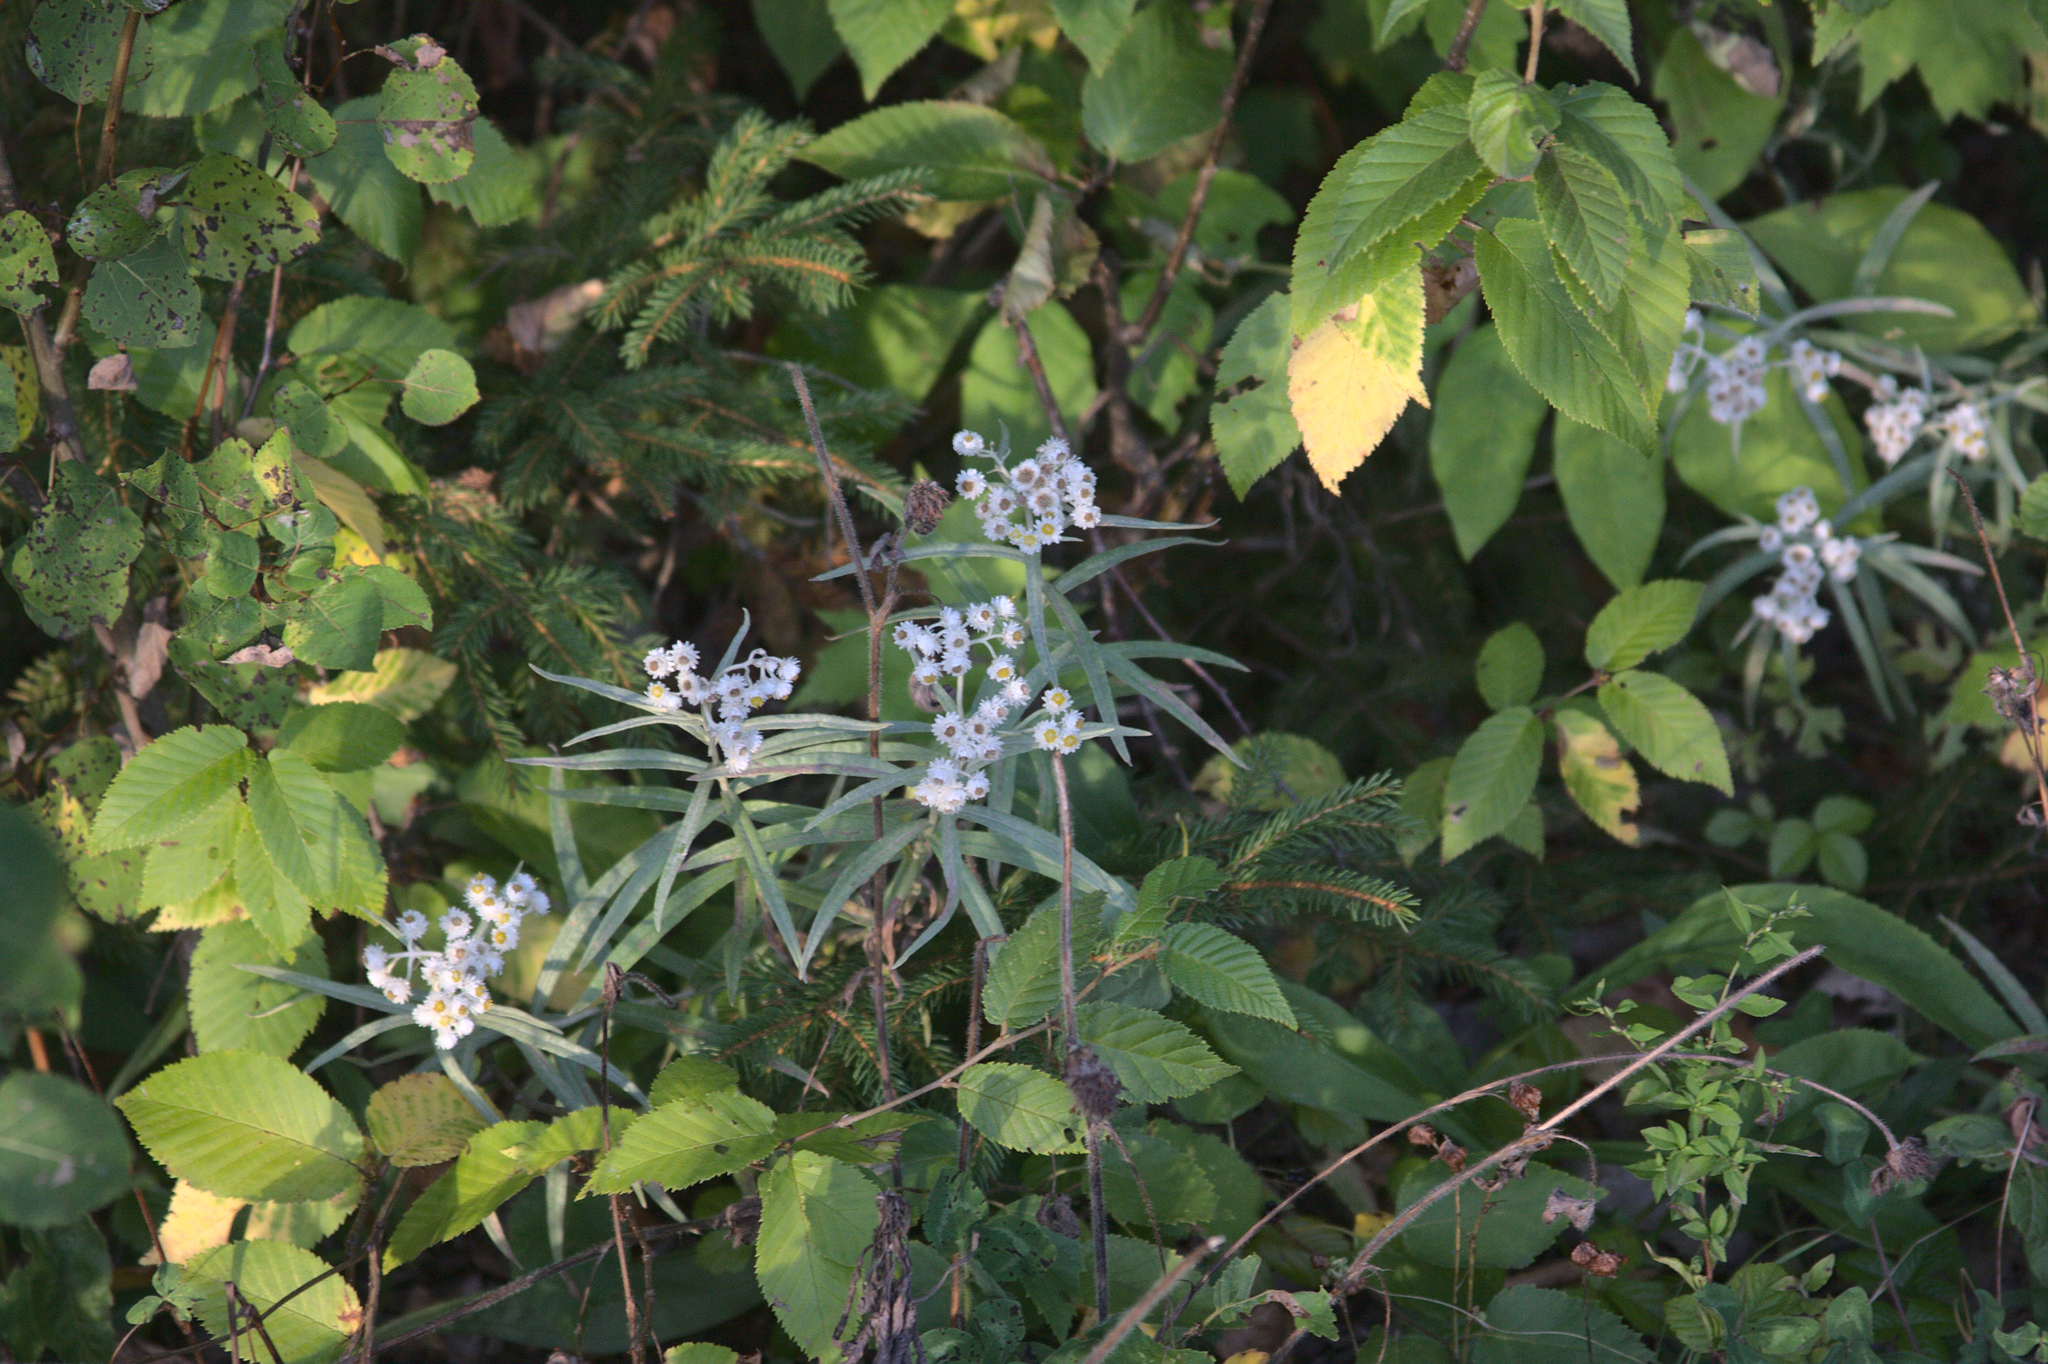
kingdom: Plantae
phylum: Tracheophyta
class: Magnoliopsida
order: Asterales
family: Asteraceae
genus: Anaphalis
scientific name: Anaphalis margaritacea
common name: Pearly everlasting
